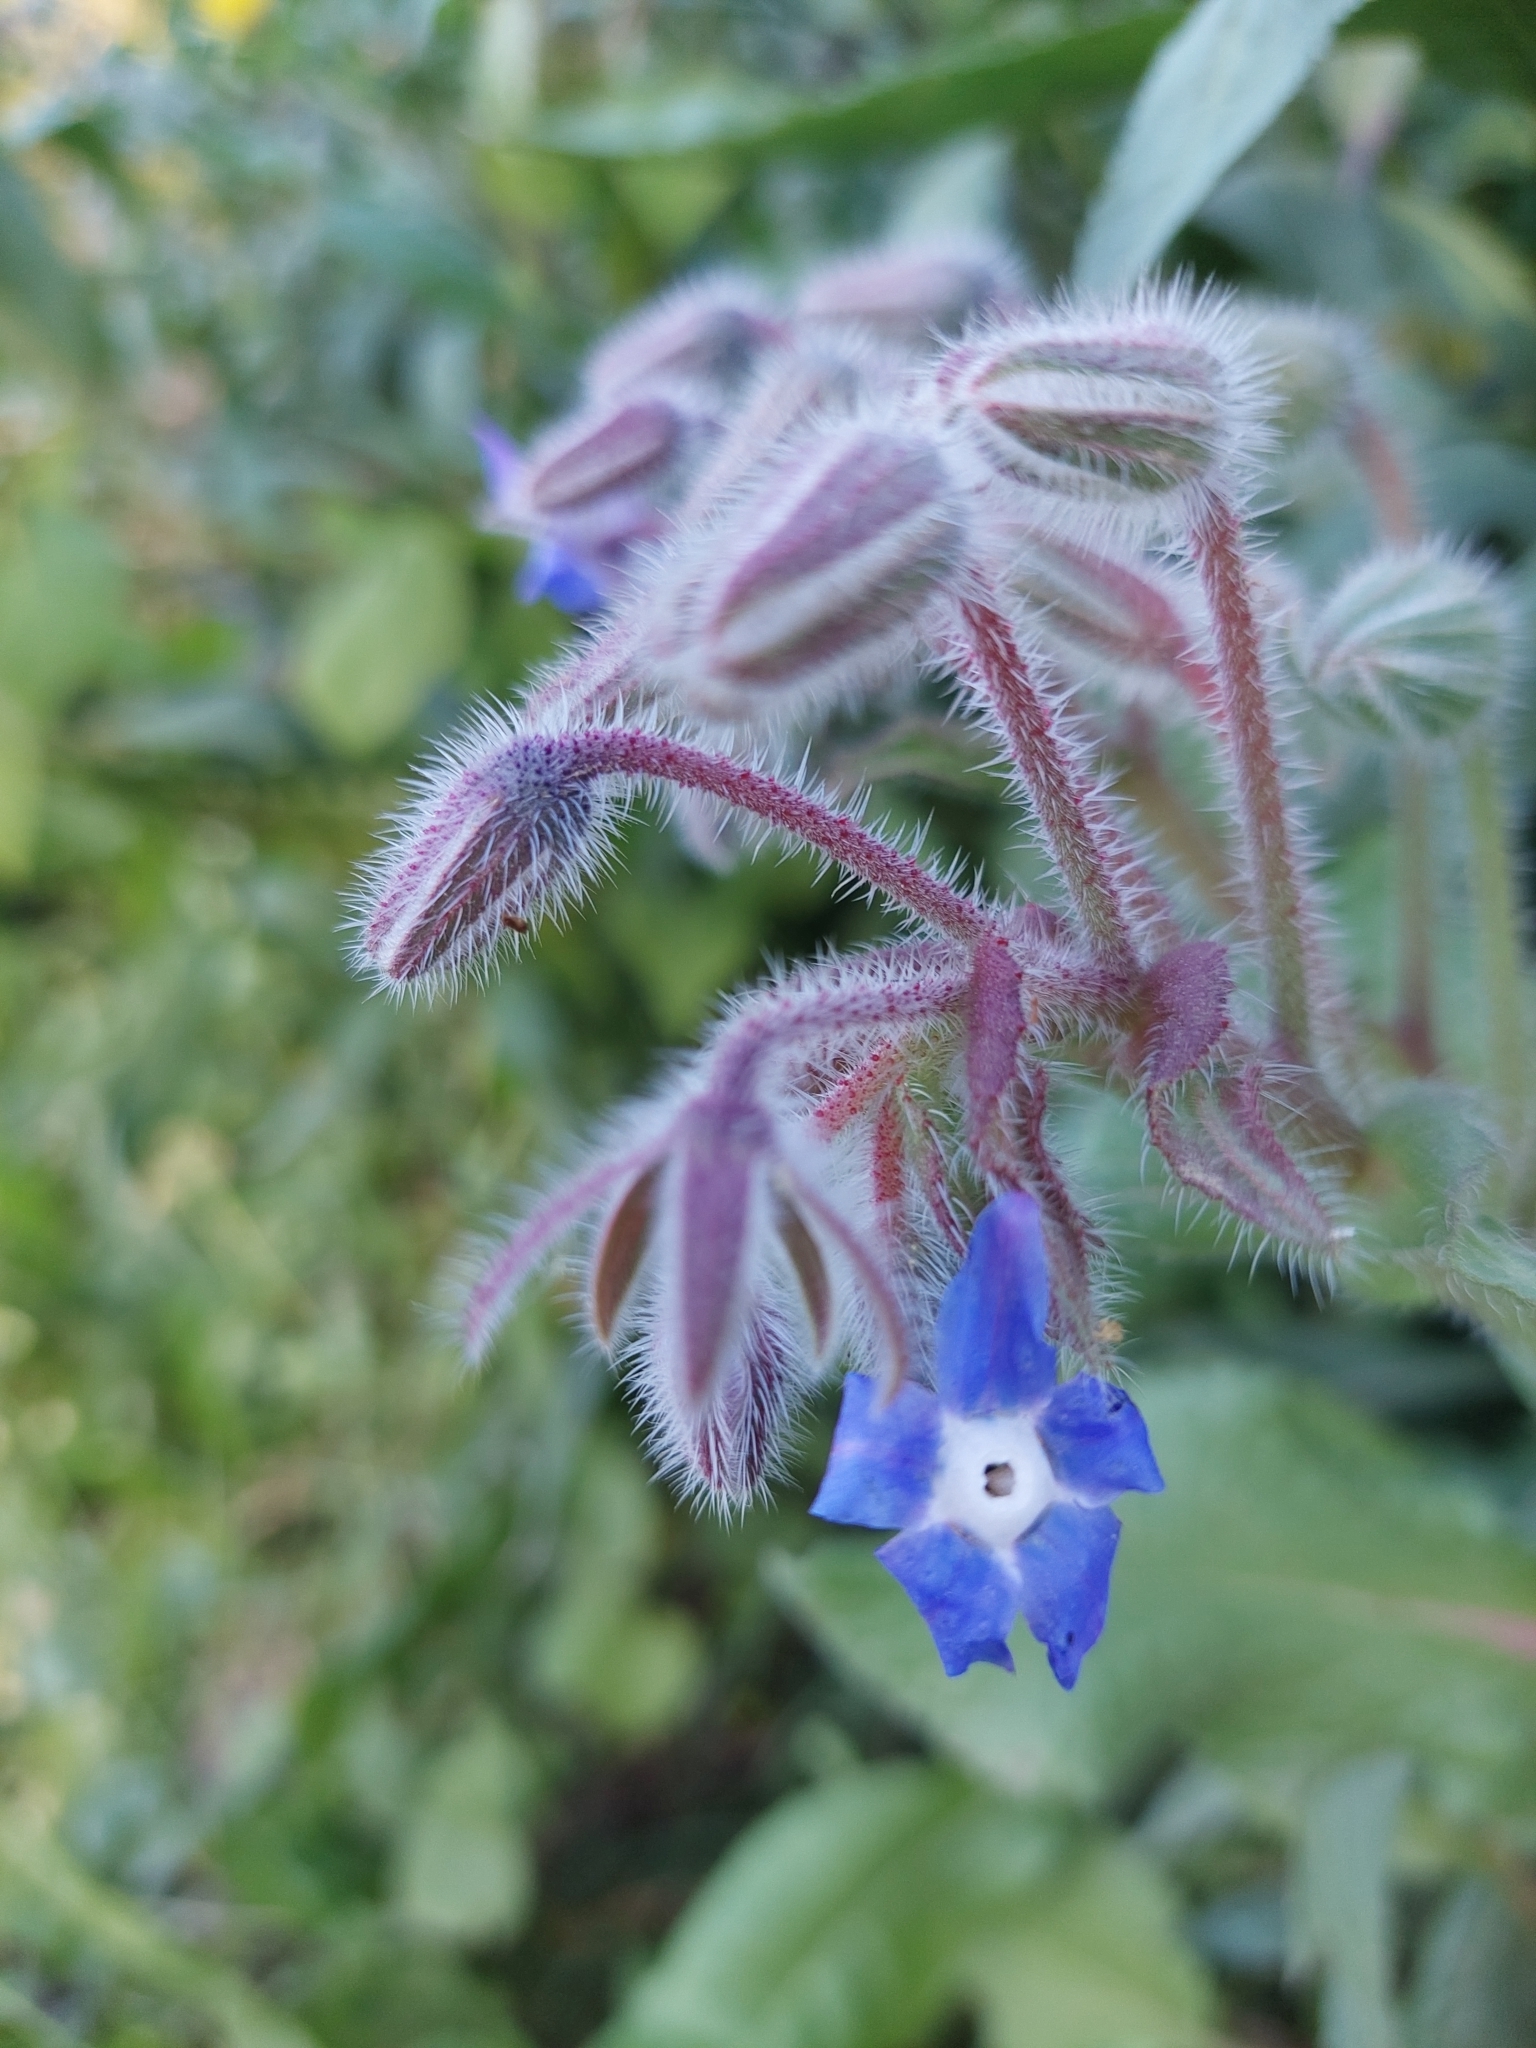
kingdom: Plantae
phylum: Tracheophyta
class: Magnoliopsida
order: Boraginales
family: Boraginaceae
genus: Borago
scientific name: Borago officinalis
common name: Borage
